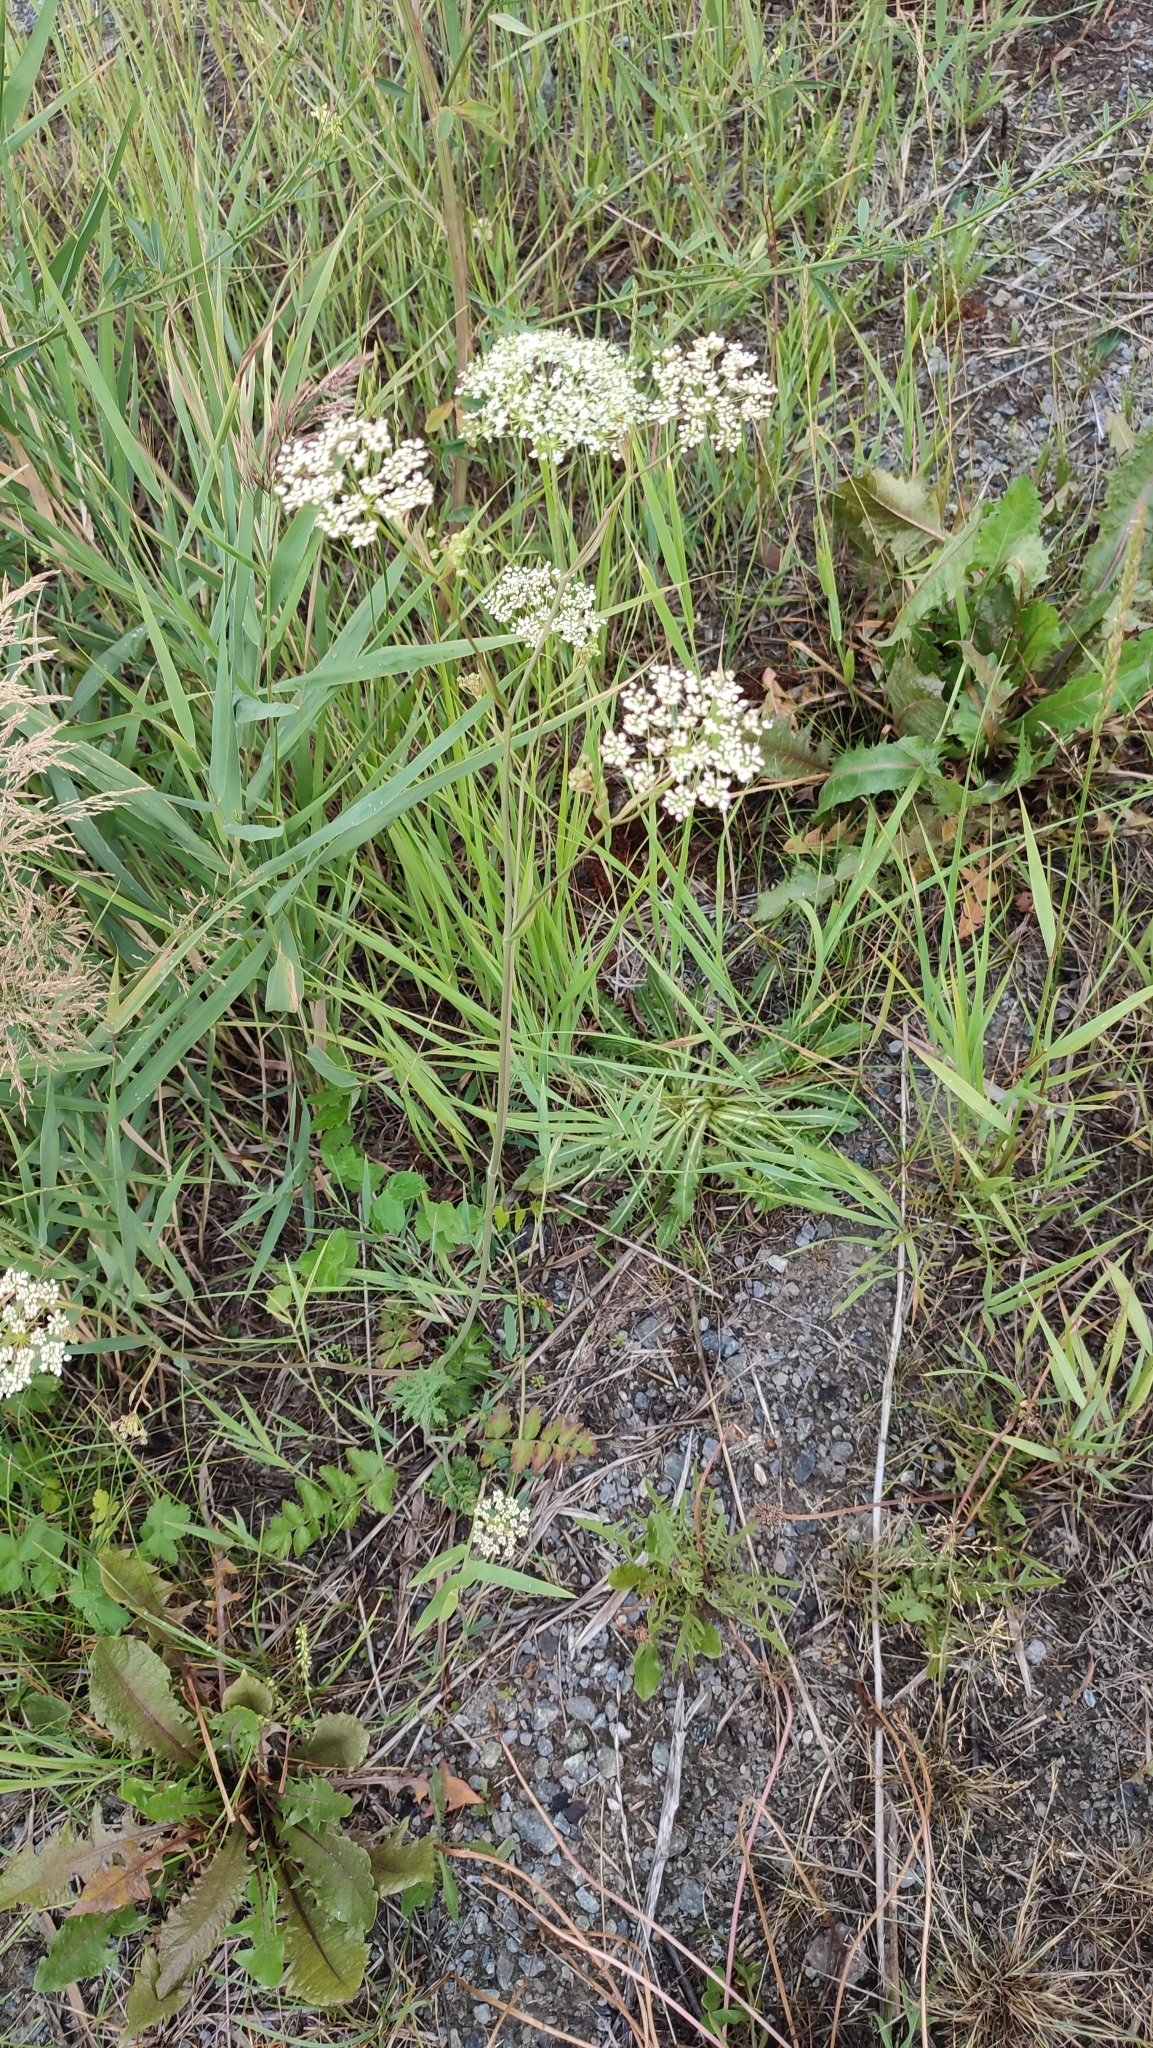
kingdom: Plantae
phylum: Tracheophyta
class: Magnoliopsida
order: Apiales
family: Apiaceae
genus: Pimpinella
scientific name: Pimpinella saxifraga
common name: Burnet-saxifrage
